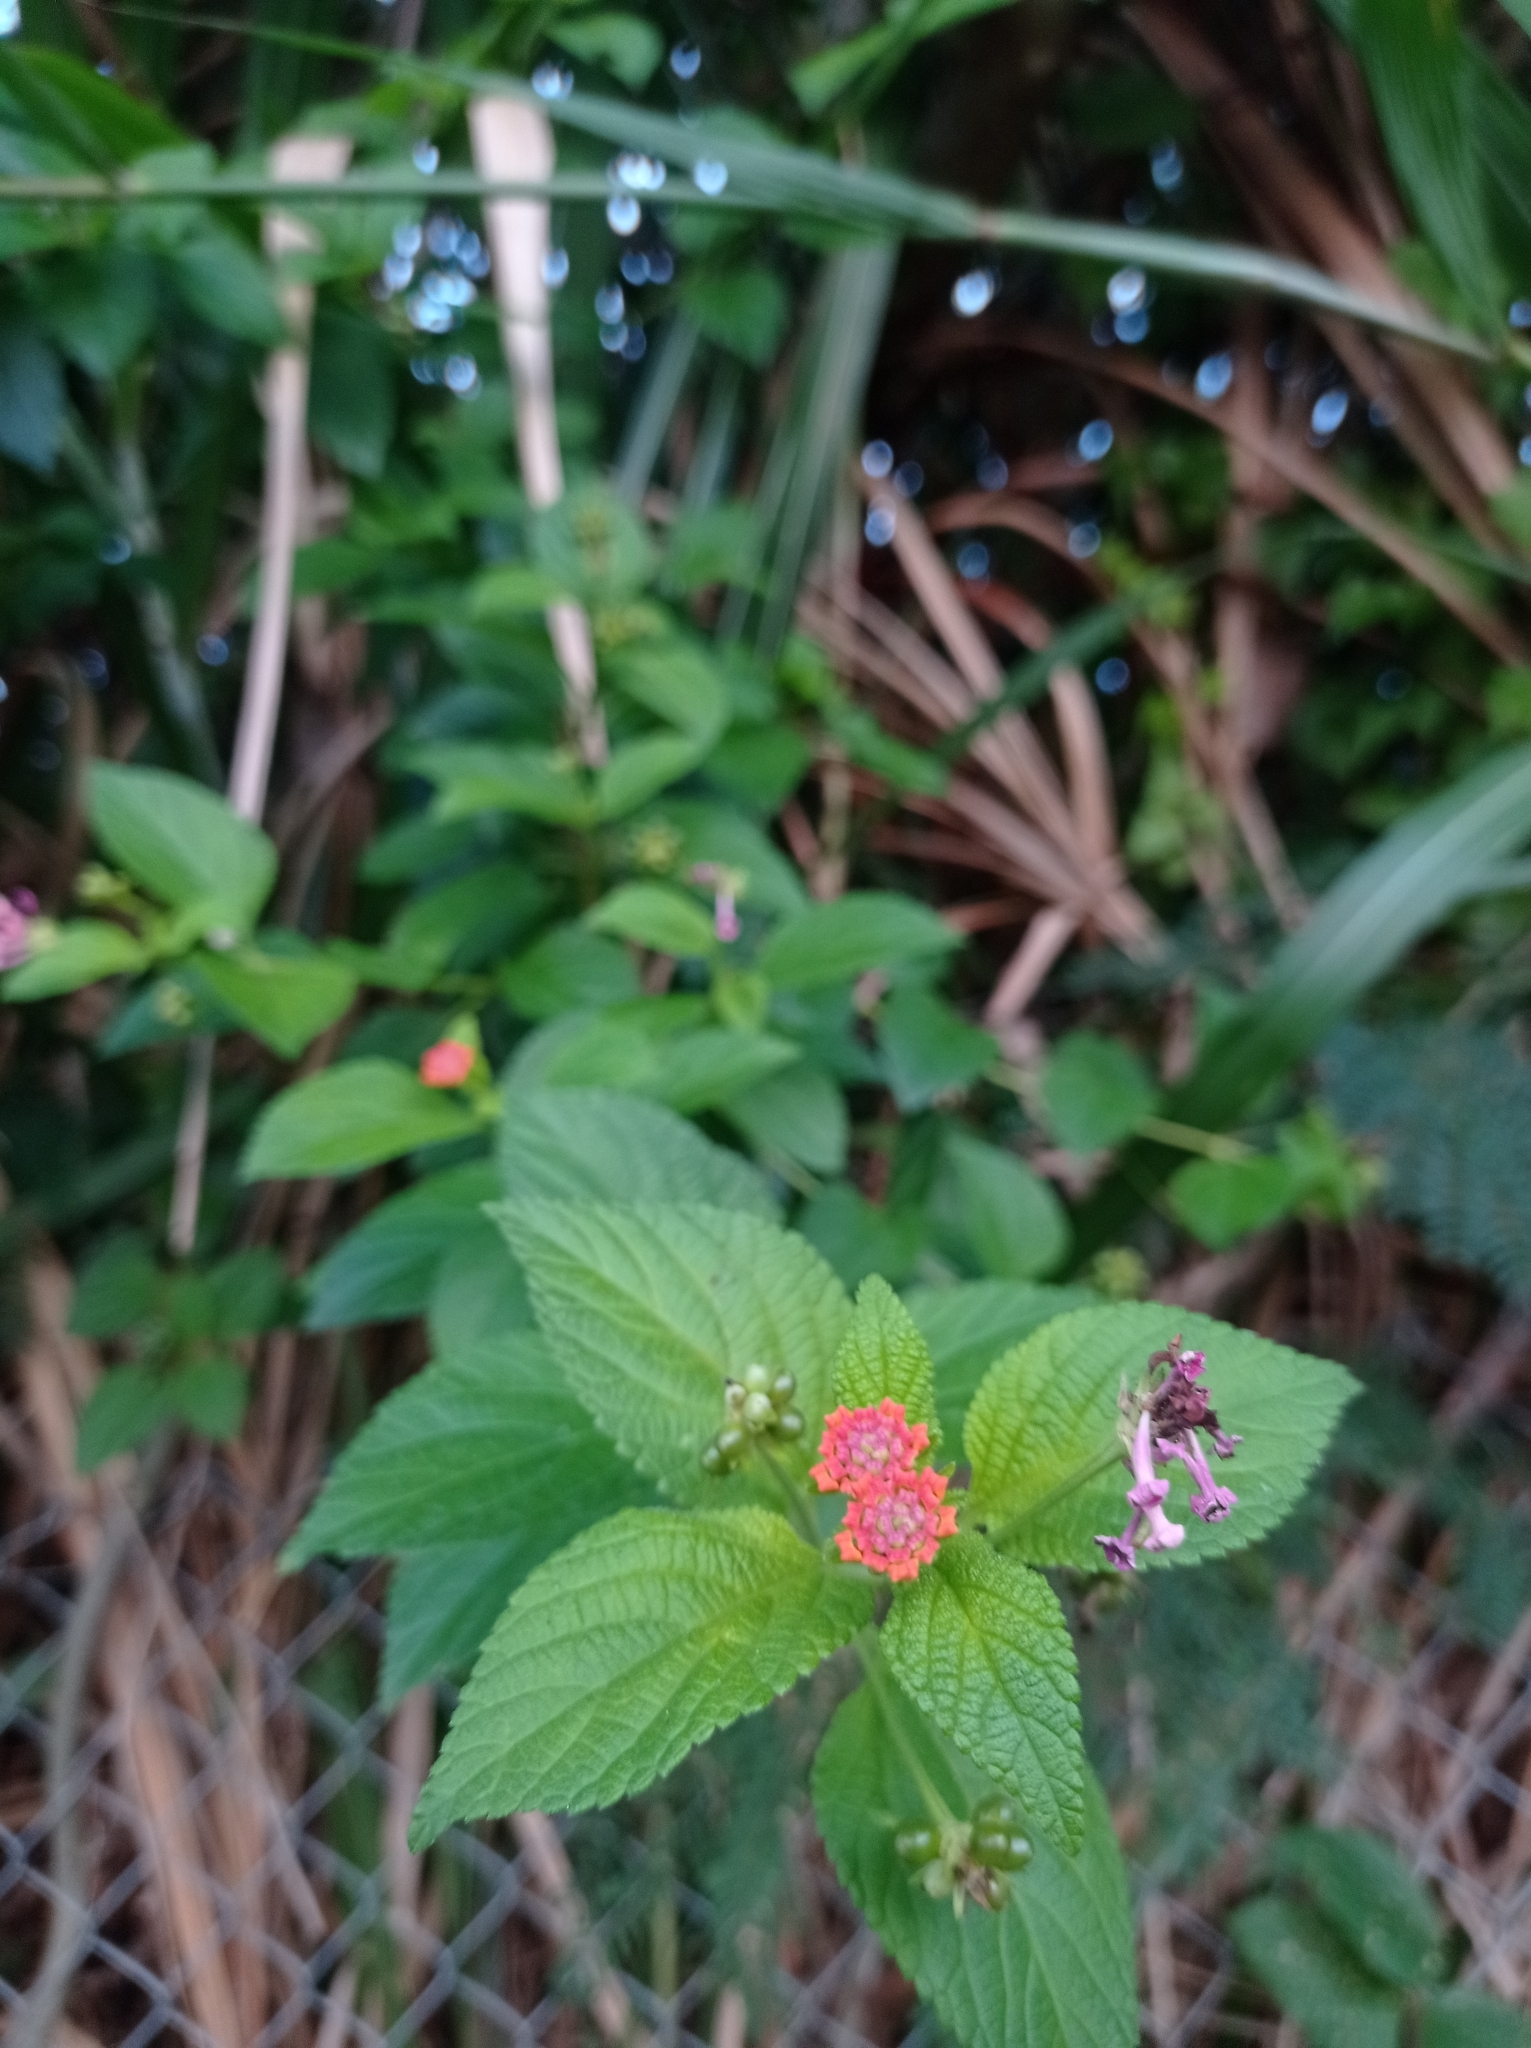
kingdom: Plantae
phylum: Tracheophyta
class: Magnoliopsida
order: Lamiales
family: Verbenaceae
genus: Lantana
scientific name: Lantana camara
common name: Lantana
